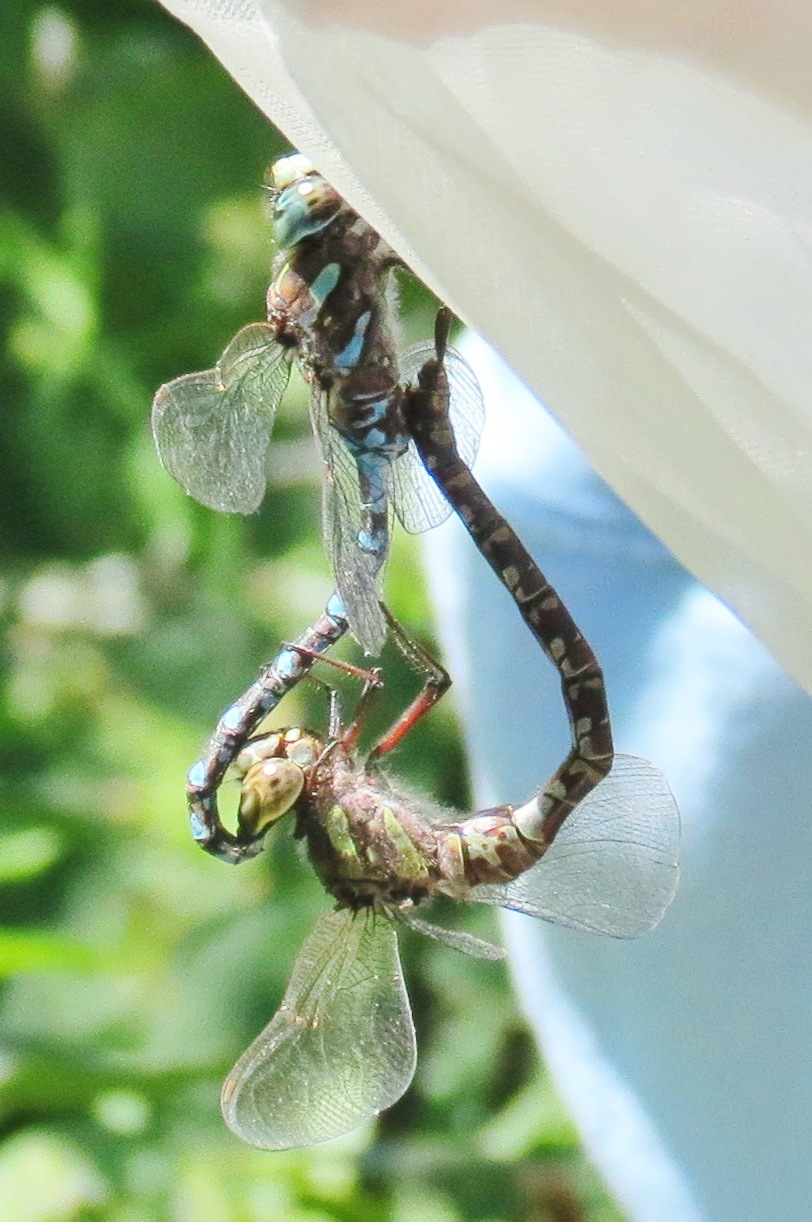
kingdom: Animalia
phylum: Arthropoda
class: Insecta
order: Odonata
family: Aeshnidae
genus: Aeshna
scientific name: Aeshna canadensis
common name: Canada darner
